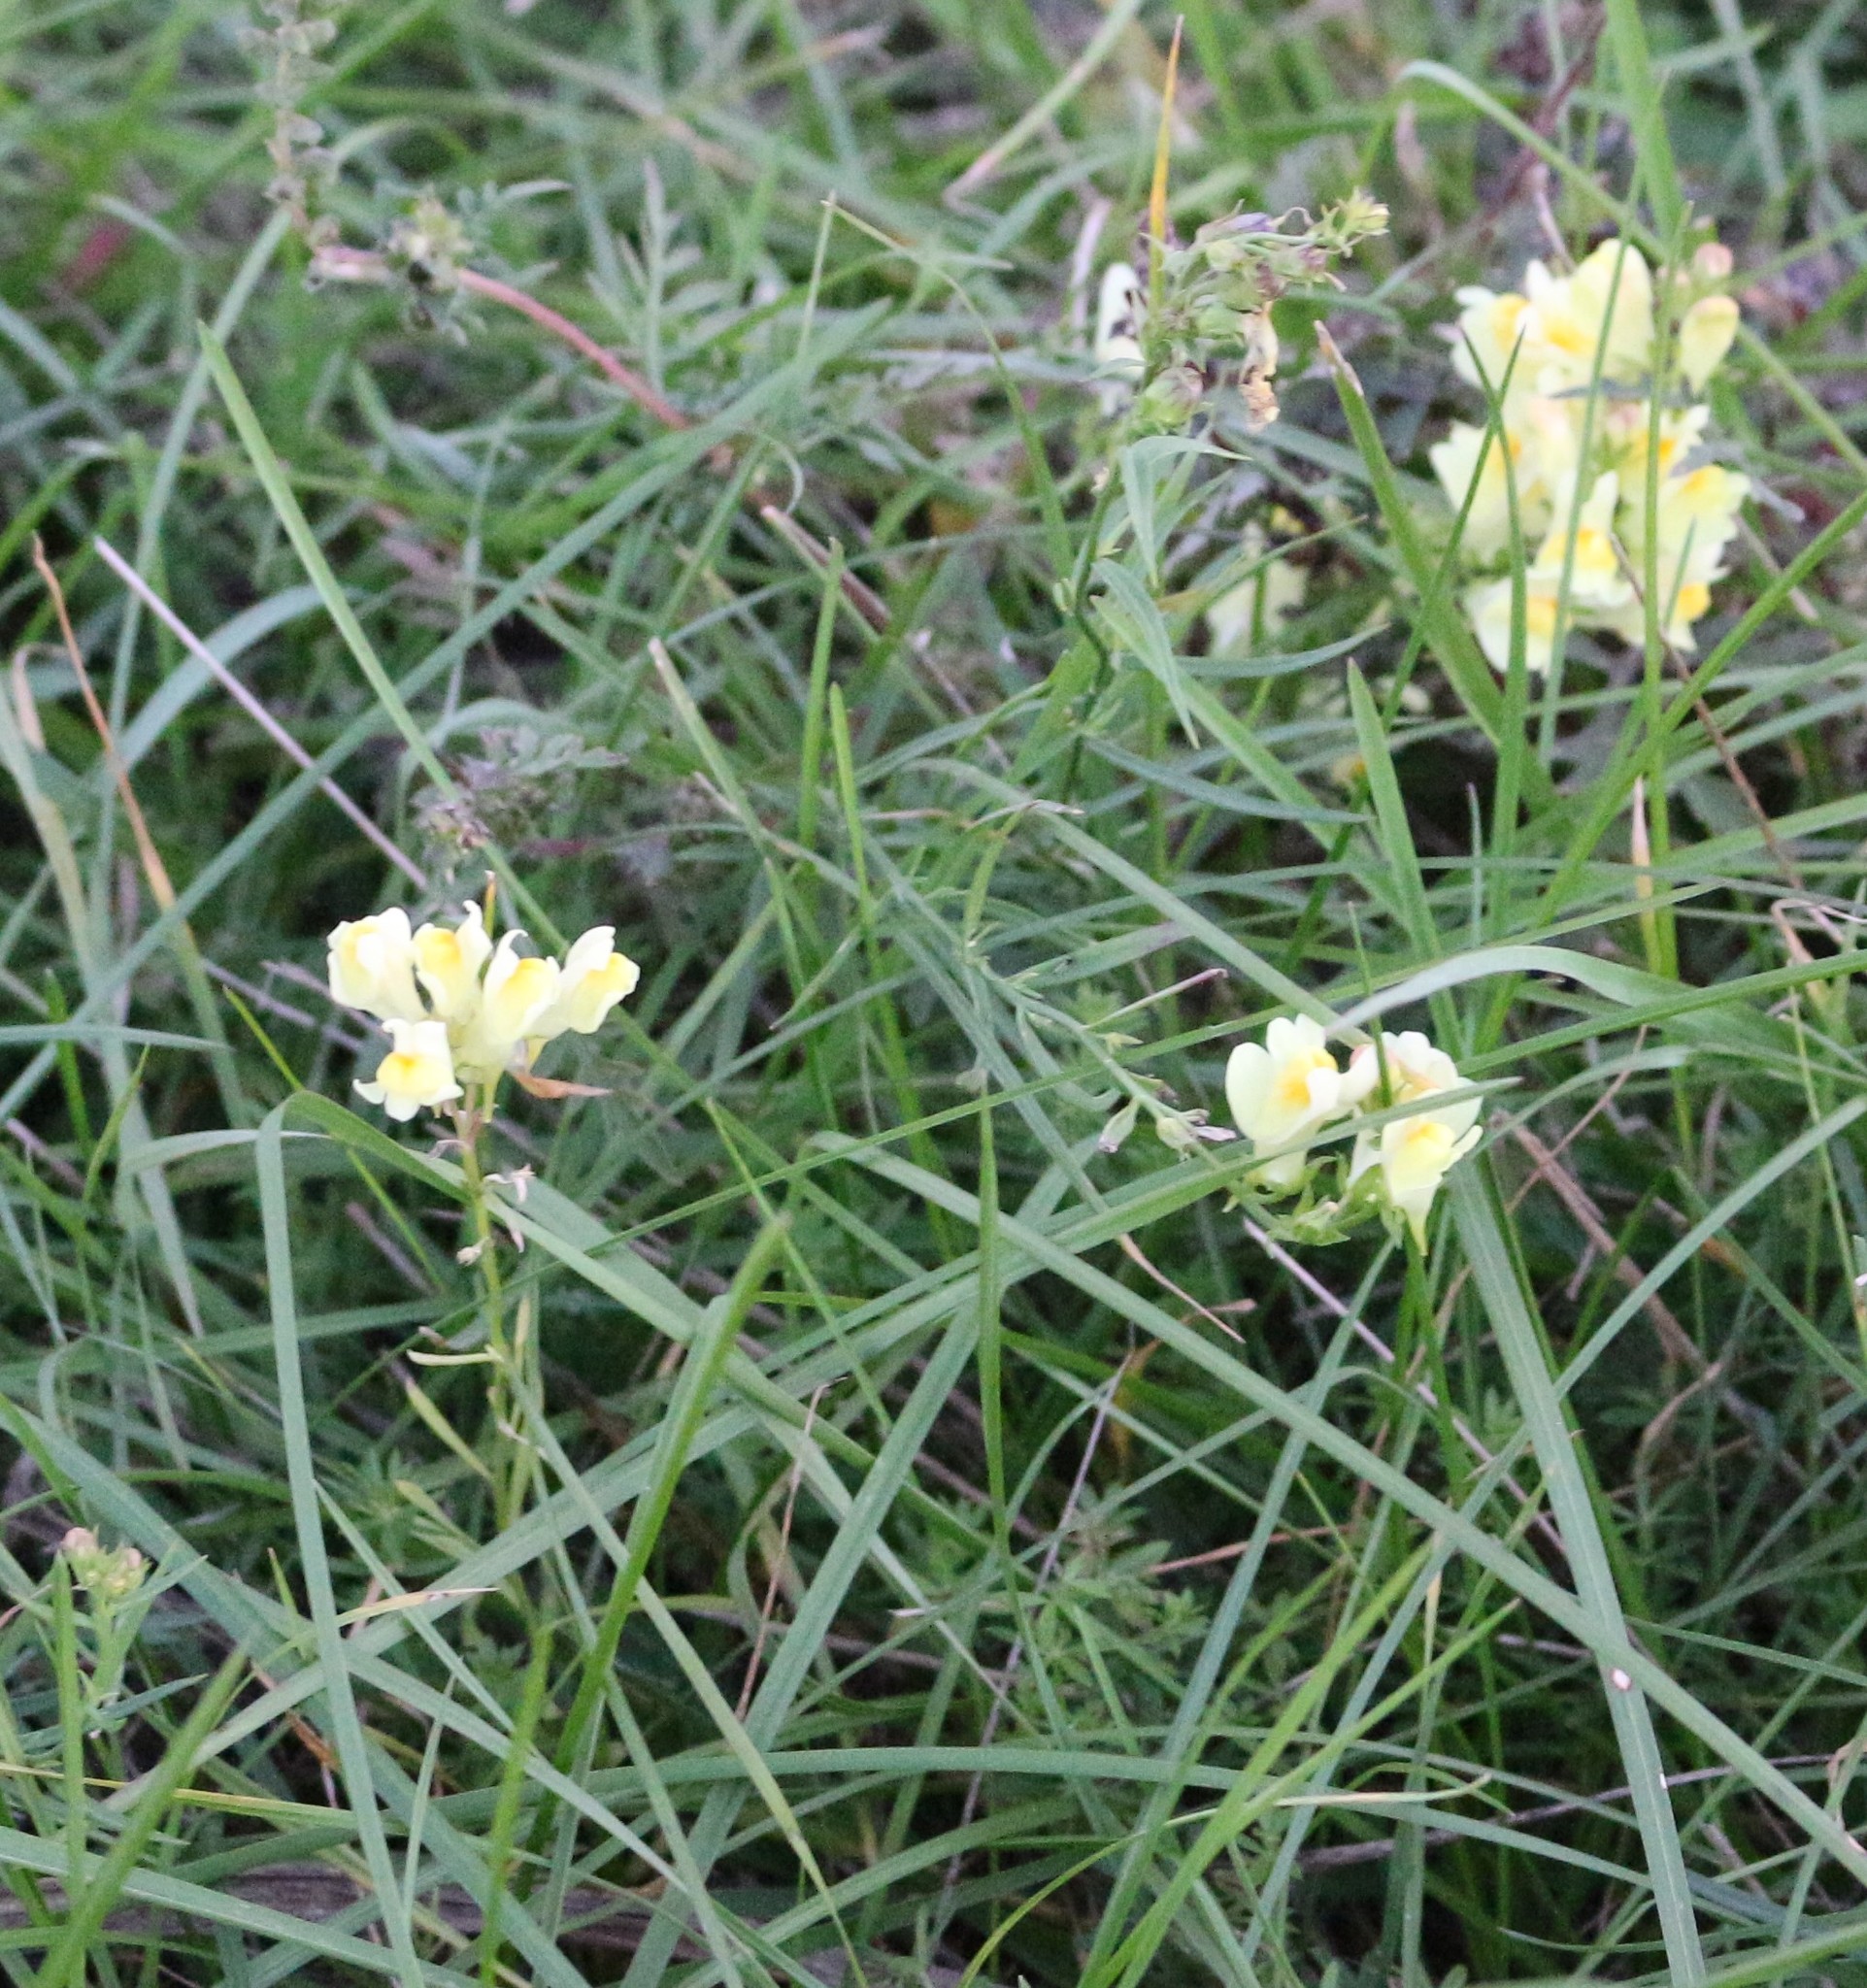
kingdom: Plantae
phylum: Tracheophyta
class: Magnoliopsida
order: Lamiales
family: Plantaginaceae
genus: Linaria
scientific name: Linaria vulgaris
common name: Butter and eggs
